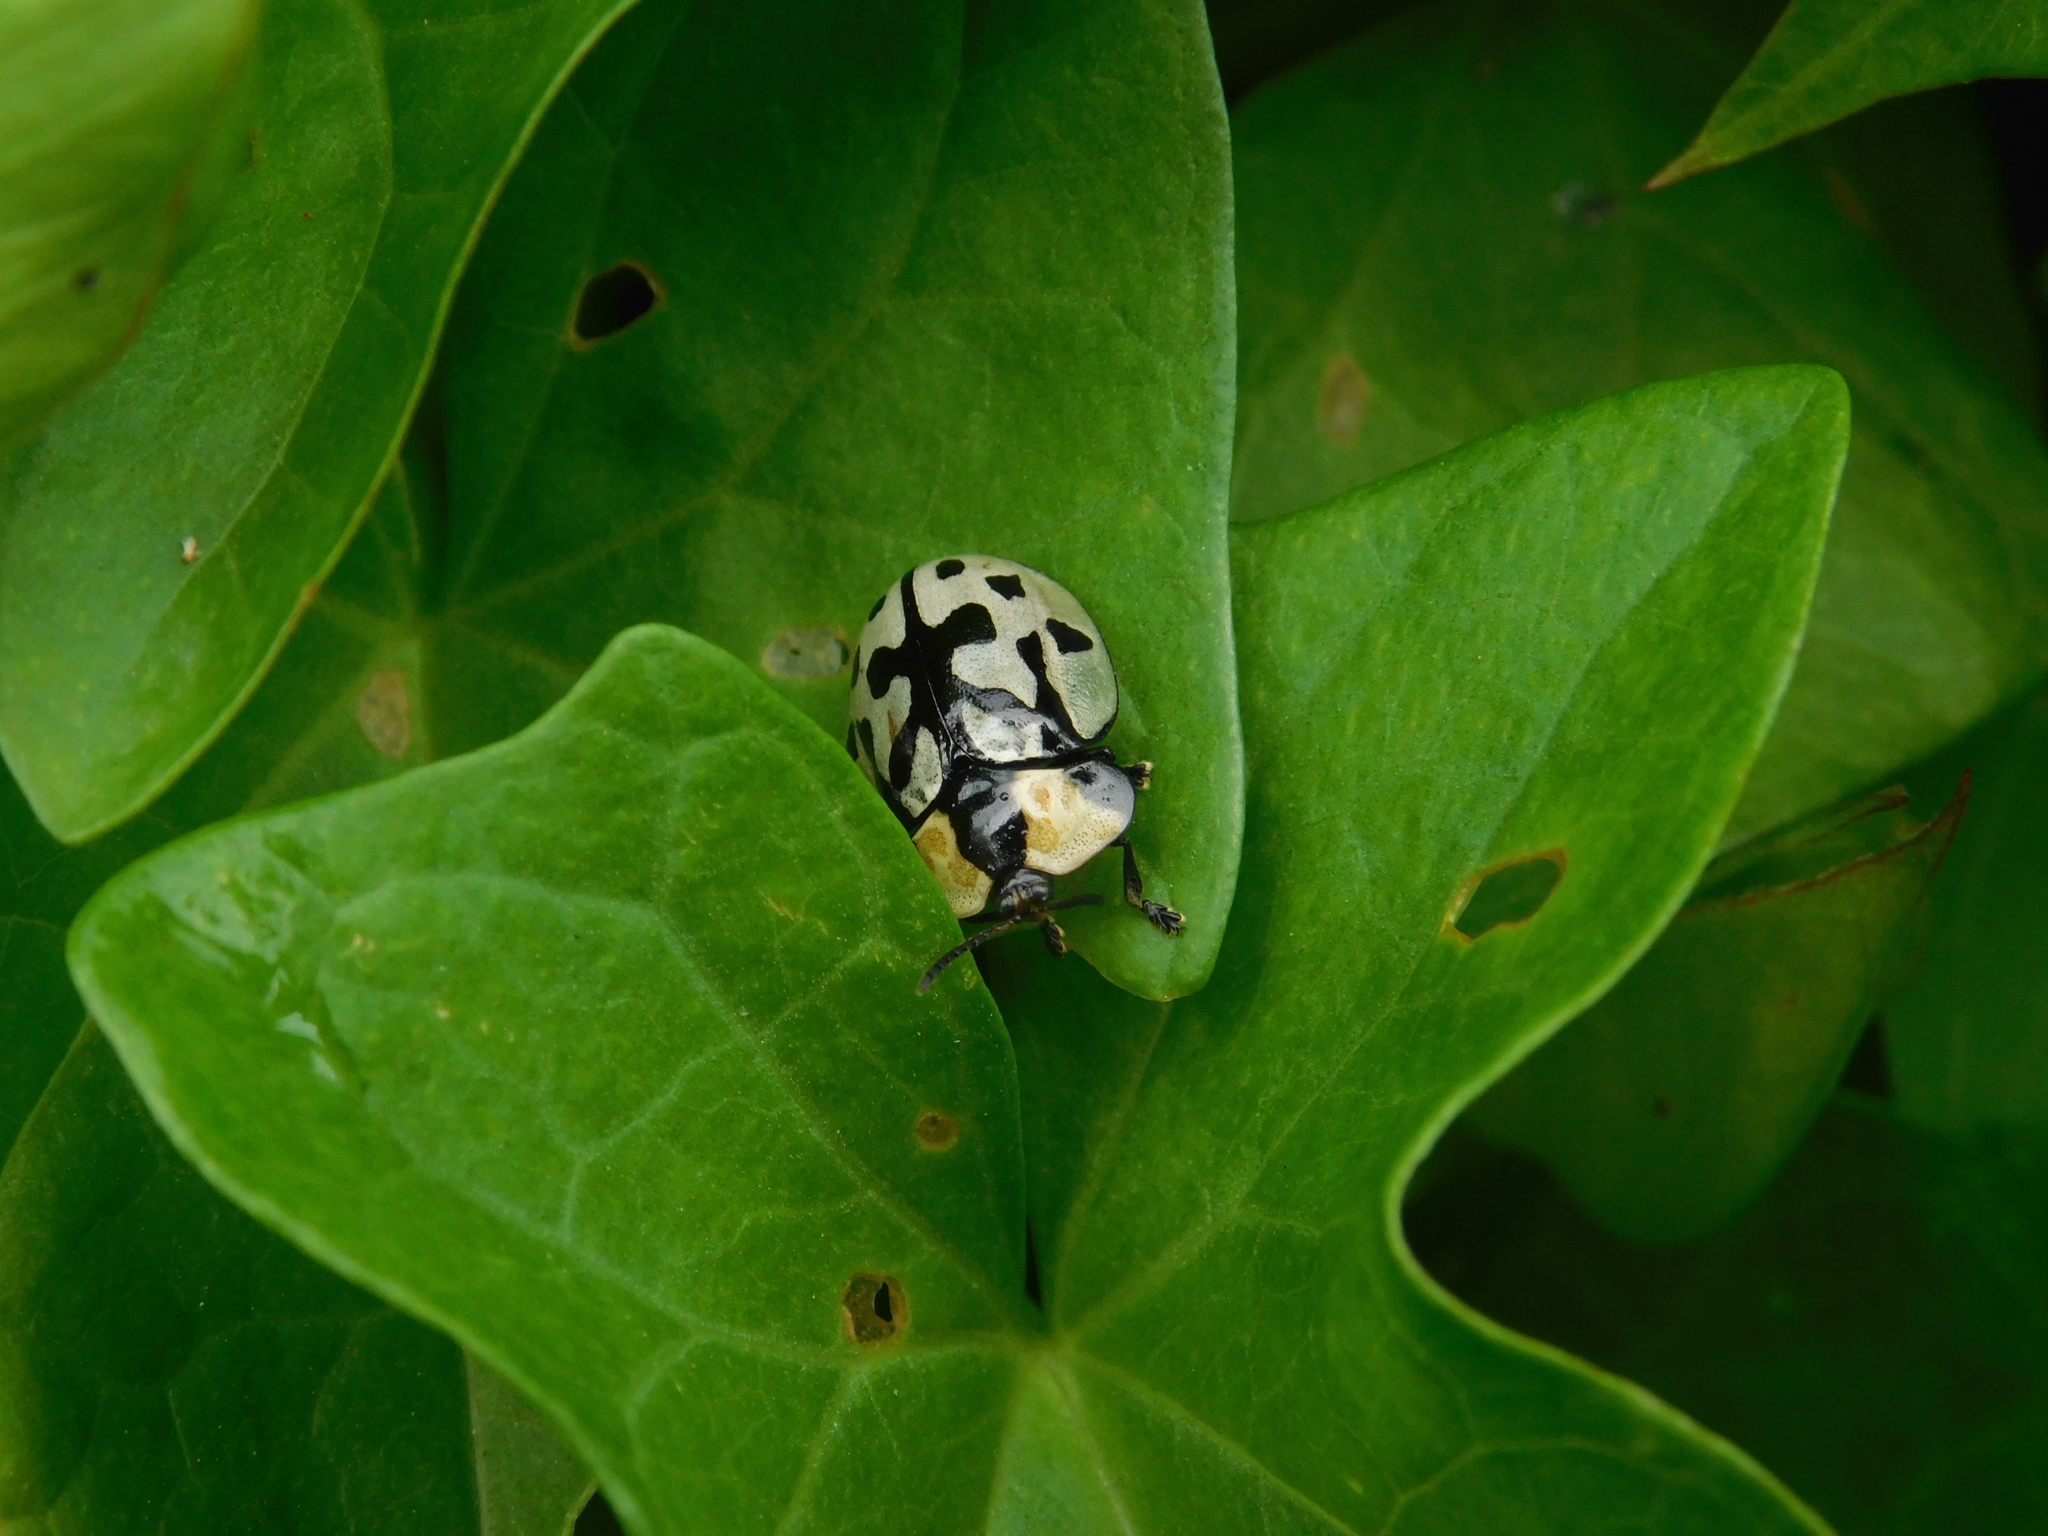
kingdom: Animalia
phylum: Arthropoda
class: Insecta
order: Coleoptera
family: Chrysomelidae
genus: Zatrephina
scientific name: Zatrephina sexlunata
